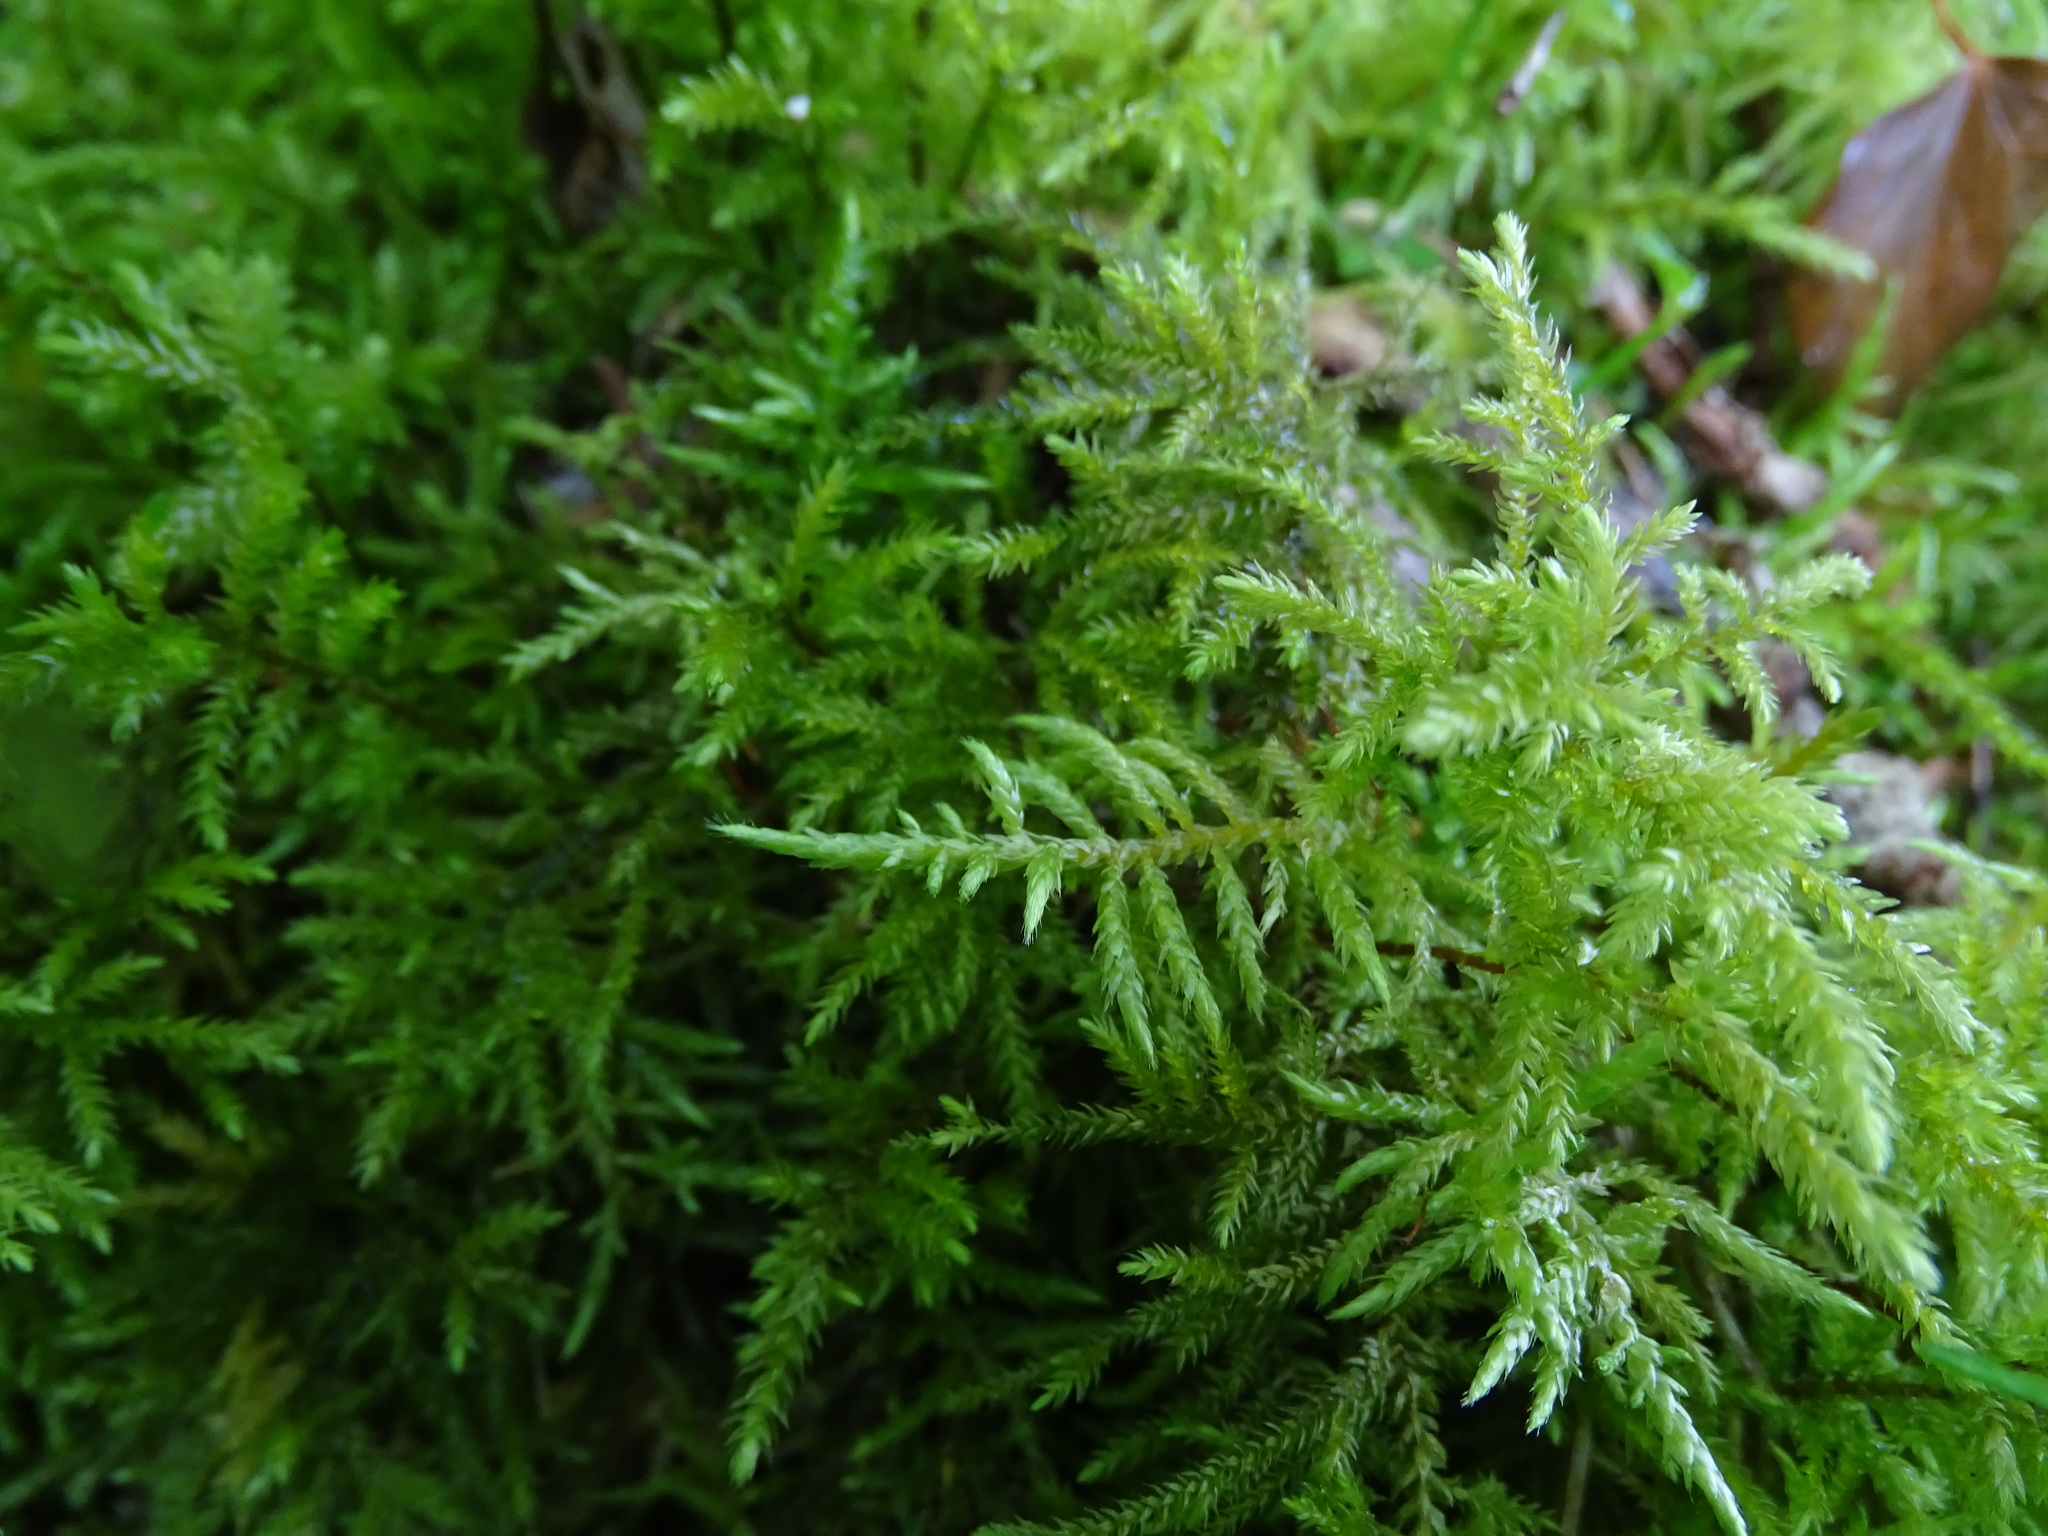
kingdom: Plantae
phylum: Bryophyta
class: Bryopsida
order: Hypnales
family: Brachytheciaceae
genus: Cirriphyllum
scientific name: Cirriphyllum piliferum
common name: Hair-pointed moss
